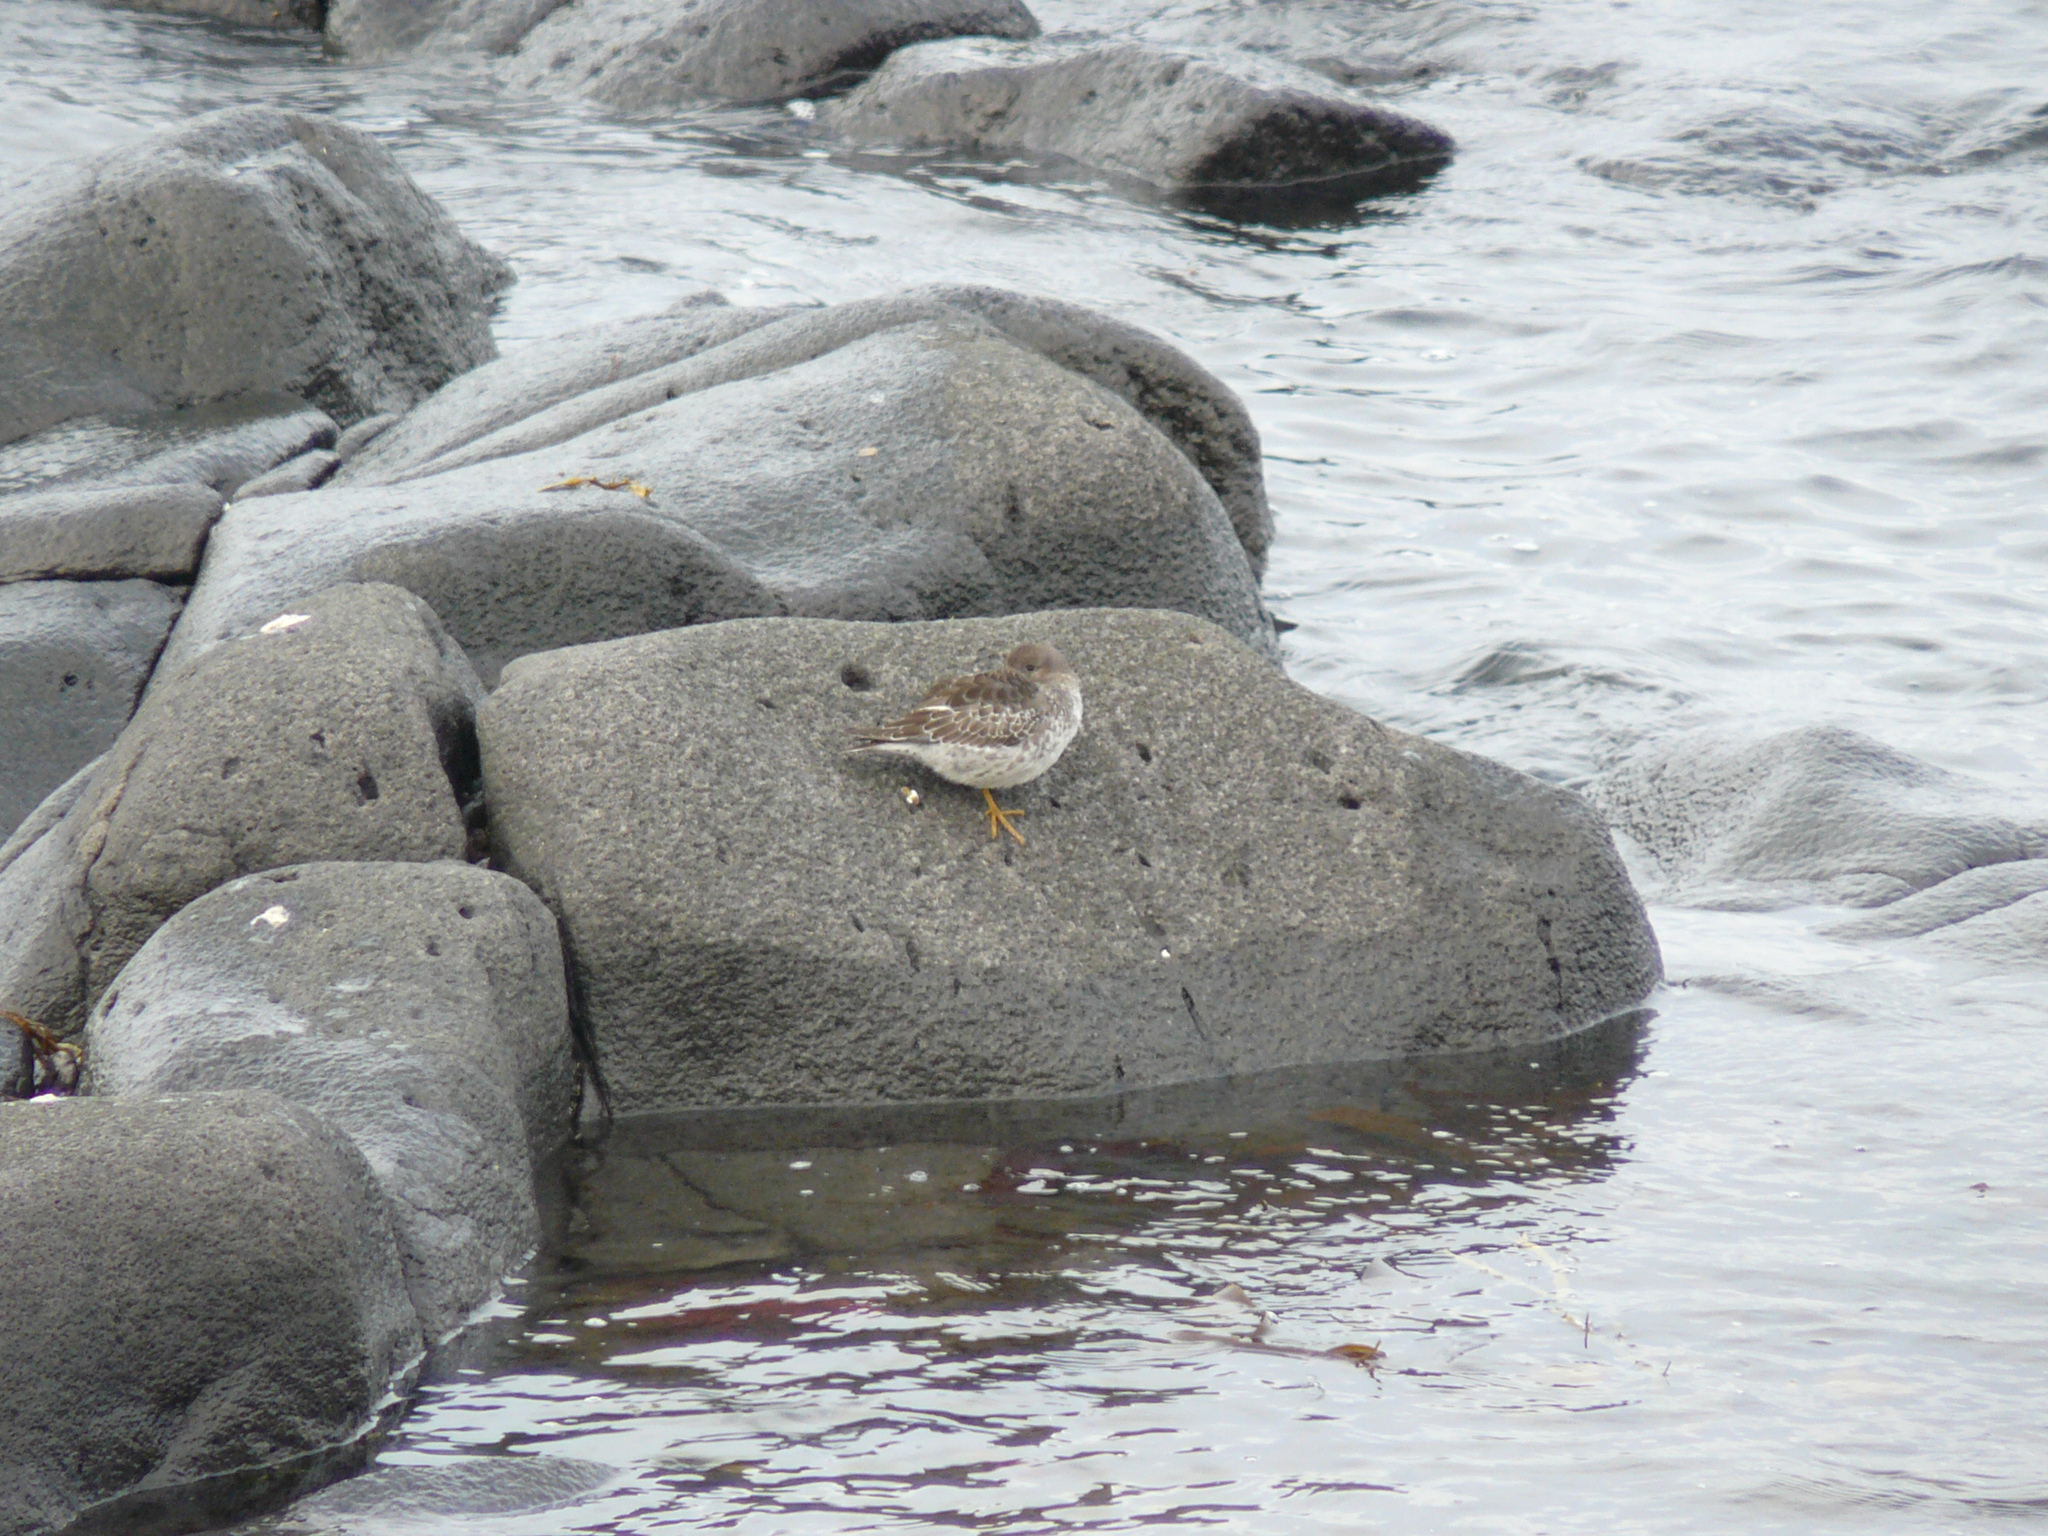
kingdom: Animalia
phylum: Chordata
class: Aves
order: Charadriiformes
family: Scolopacidae
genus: Calidris
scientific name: Calidris maritima
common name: Purple sandpiper
